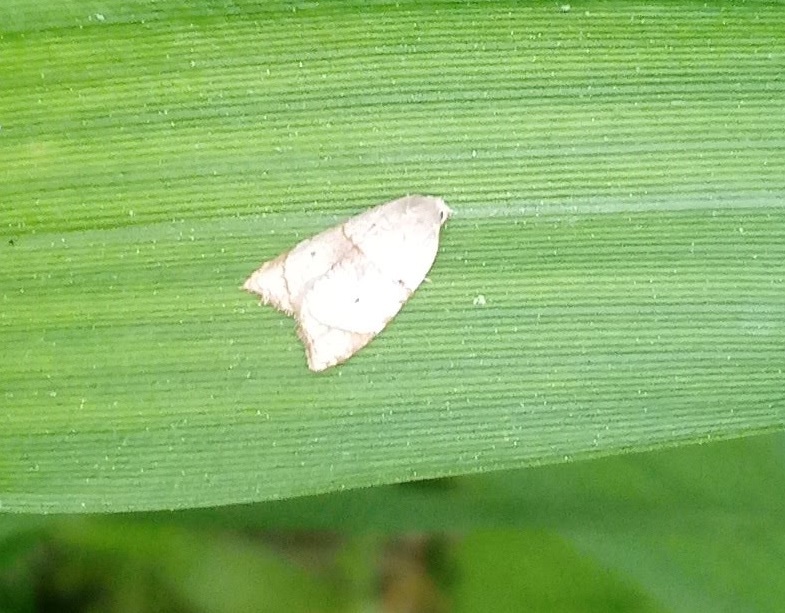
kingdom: Animalia
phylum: Arthropoda
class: Insecta
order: Lepidoptera
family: Tortricidae
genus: Coelostathma
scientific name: Coelostathma discopunctana
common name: Batman moth
